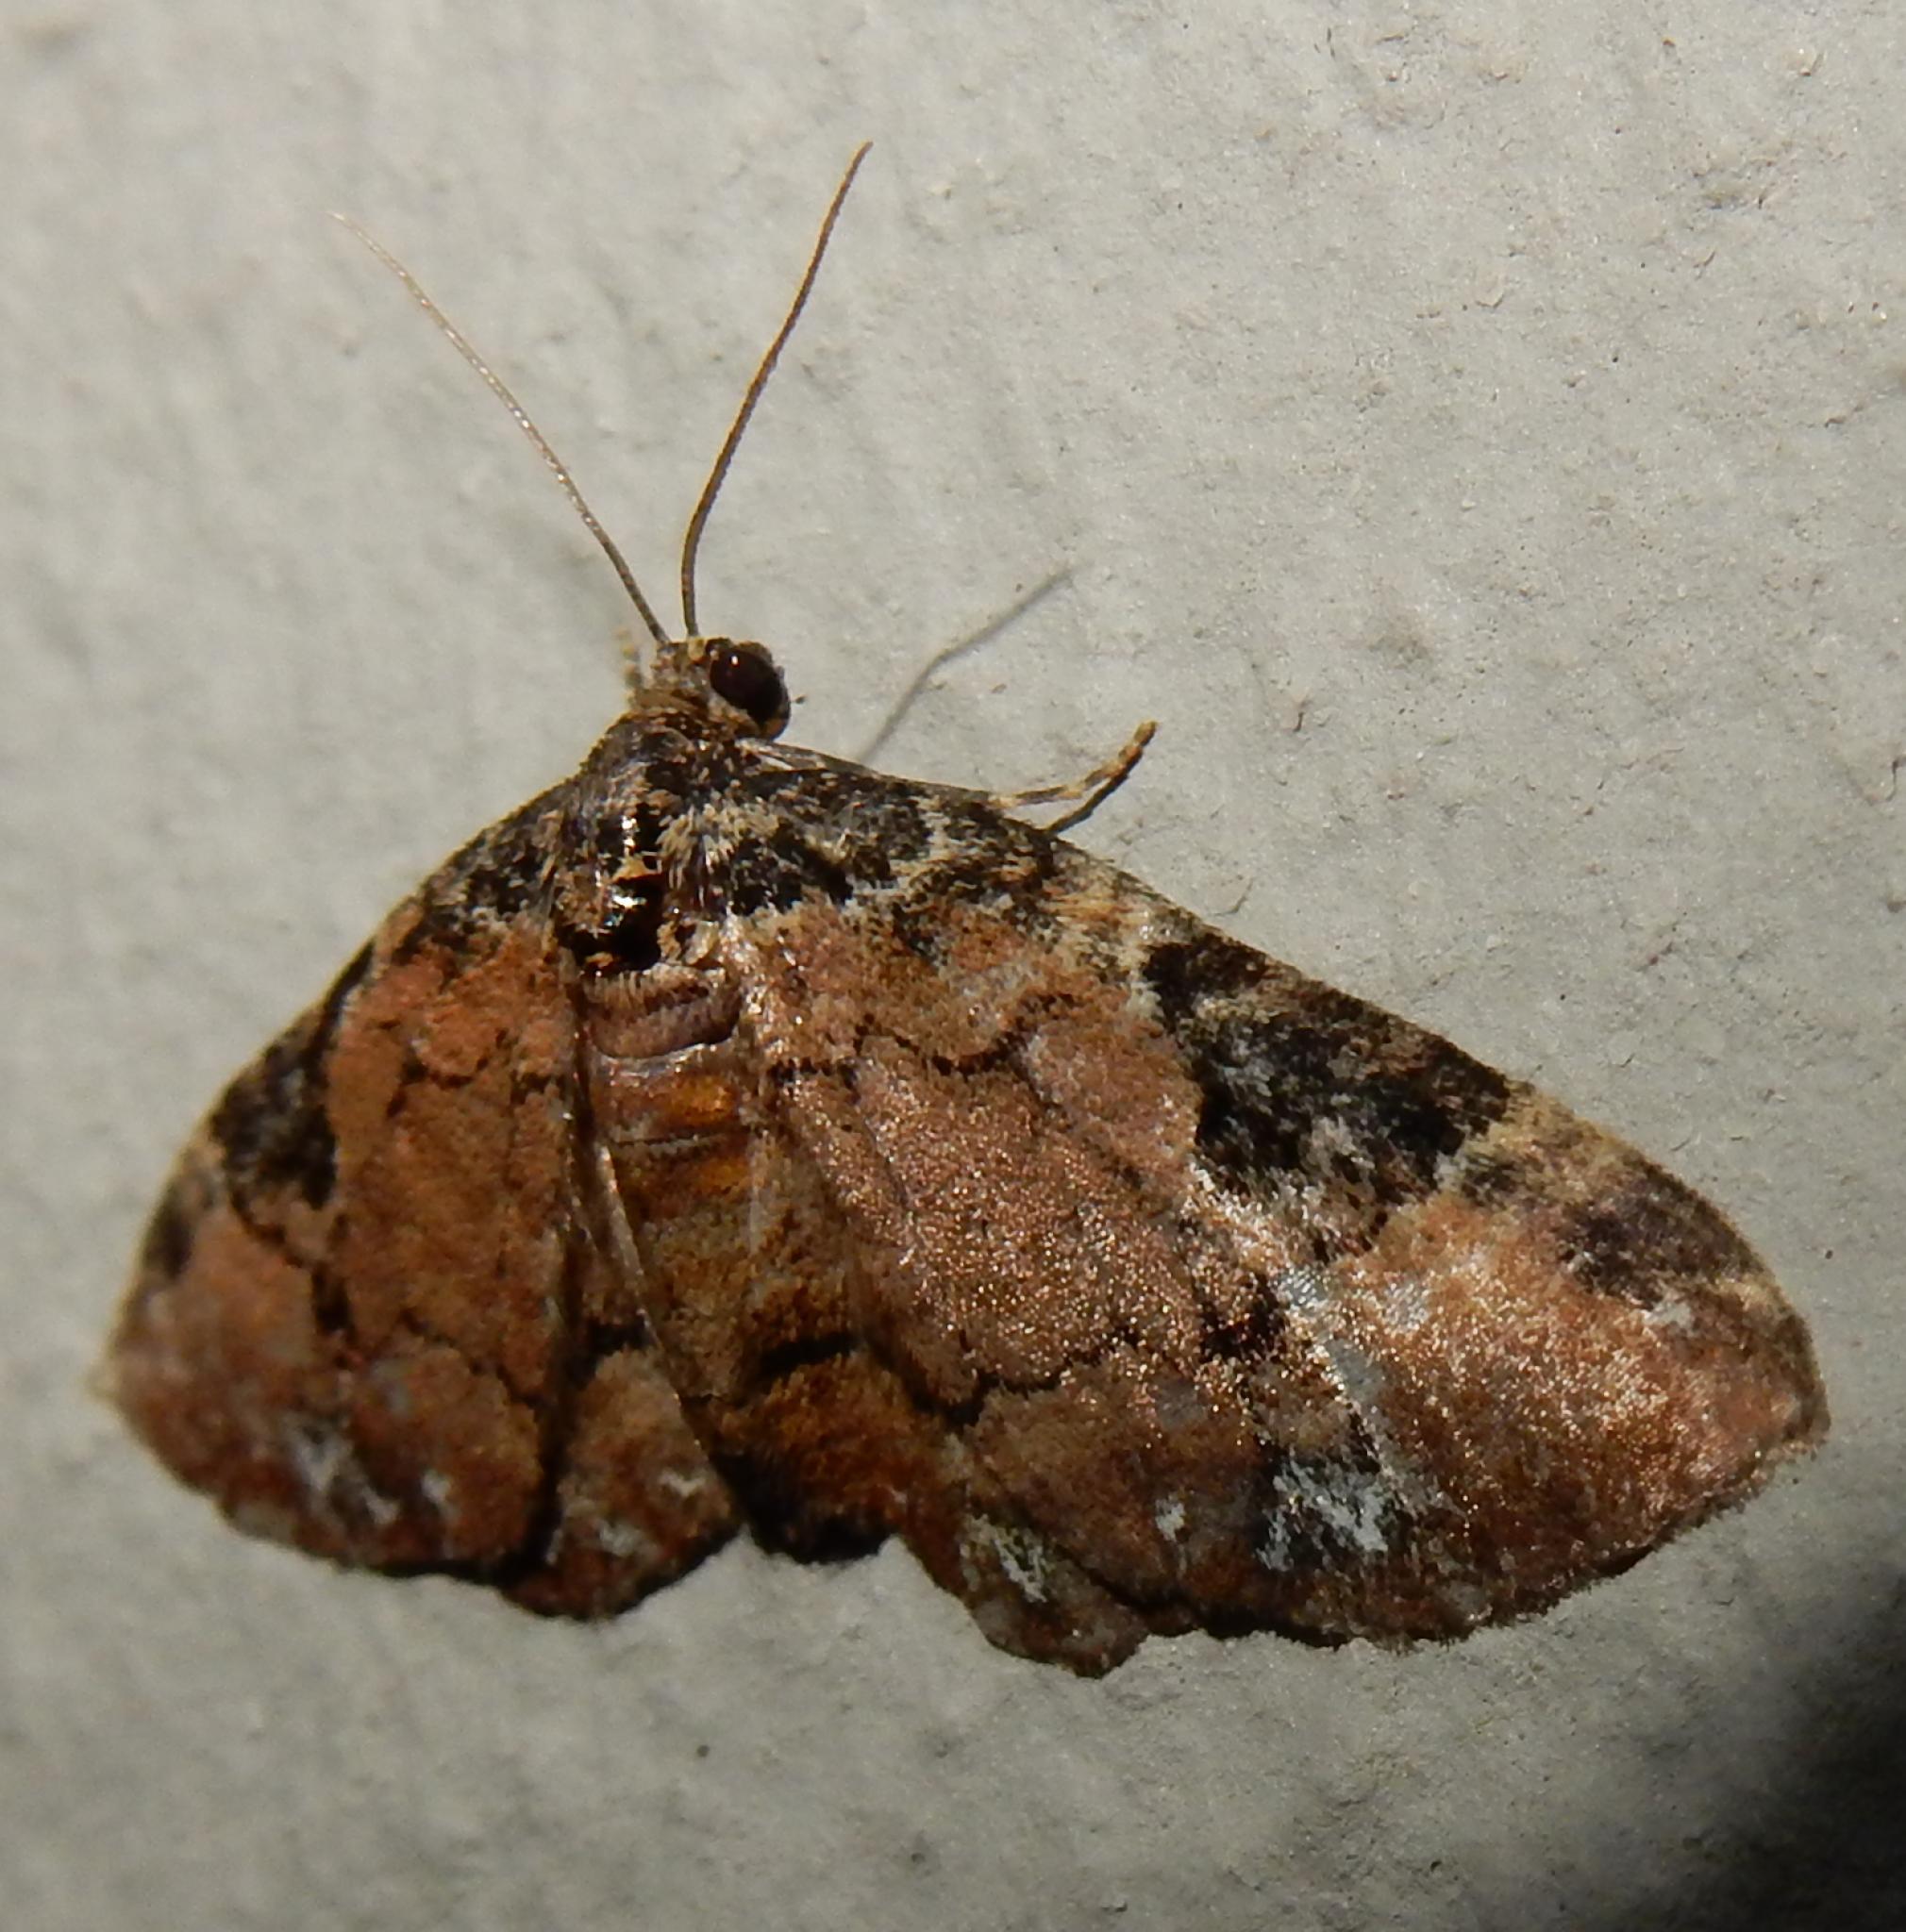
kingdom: Animalia
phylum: Arthropoda
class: Insecta
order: Lepidoptera
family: Geometridae
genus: Melanthia
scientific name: Melanthia ustiplaga
